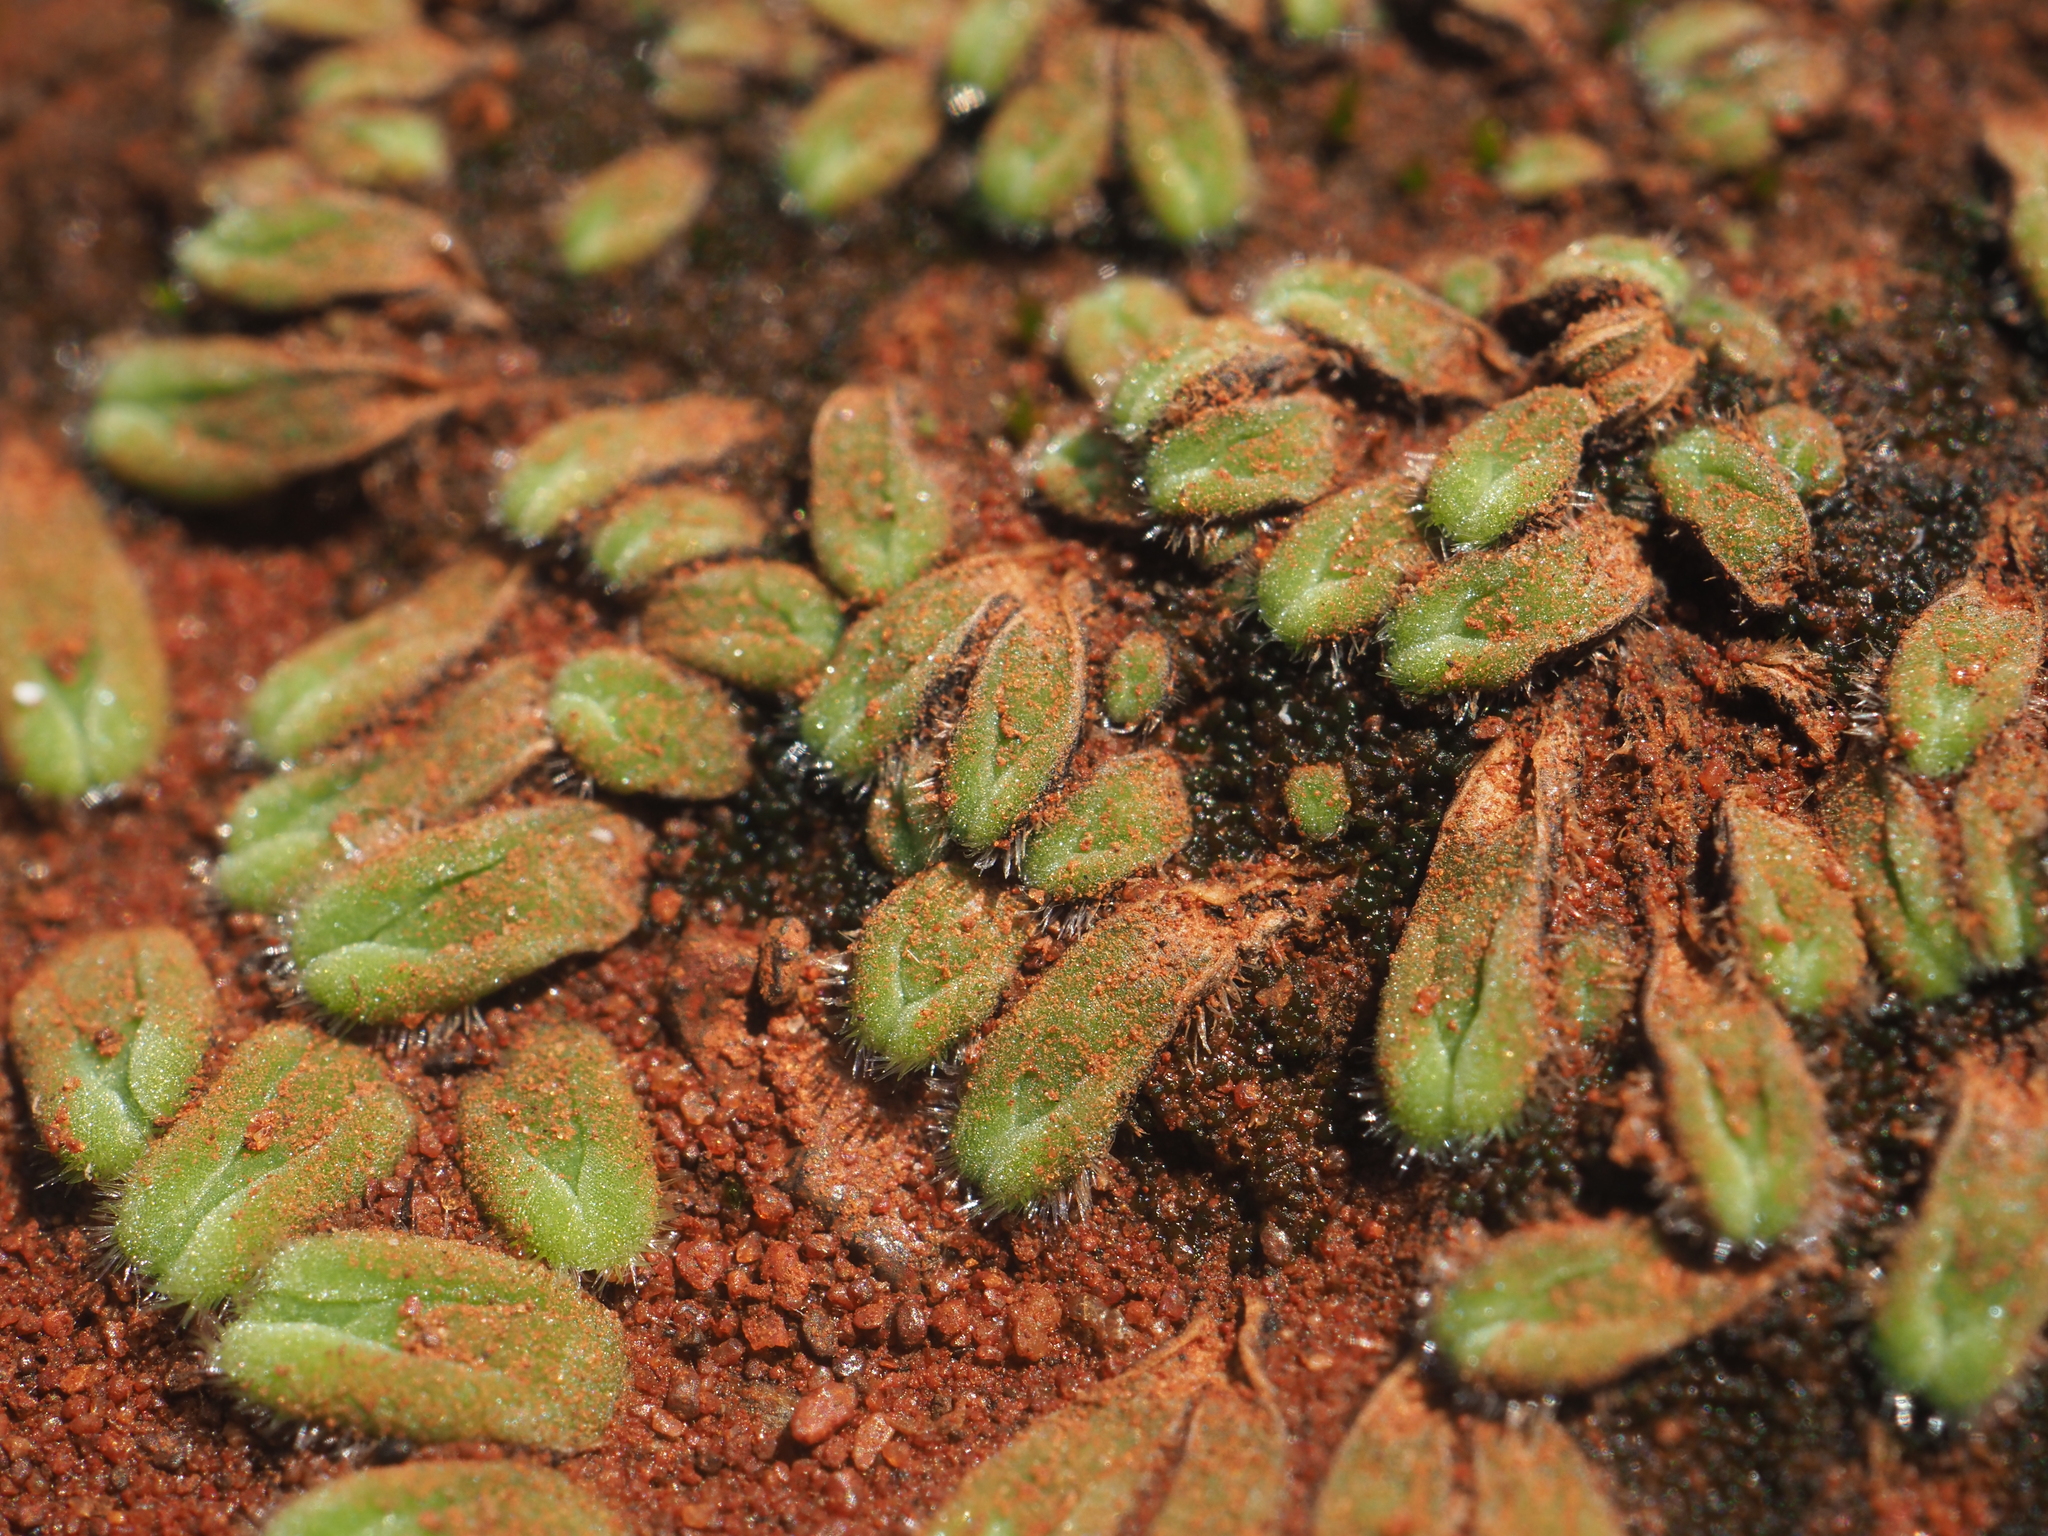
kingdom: Plantae
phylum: Marchantiophyta
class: Marchantiopsida
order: Marchantiales
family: Ricciaceae
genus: Riccia
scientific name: Riccia crinita
